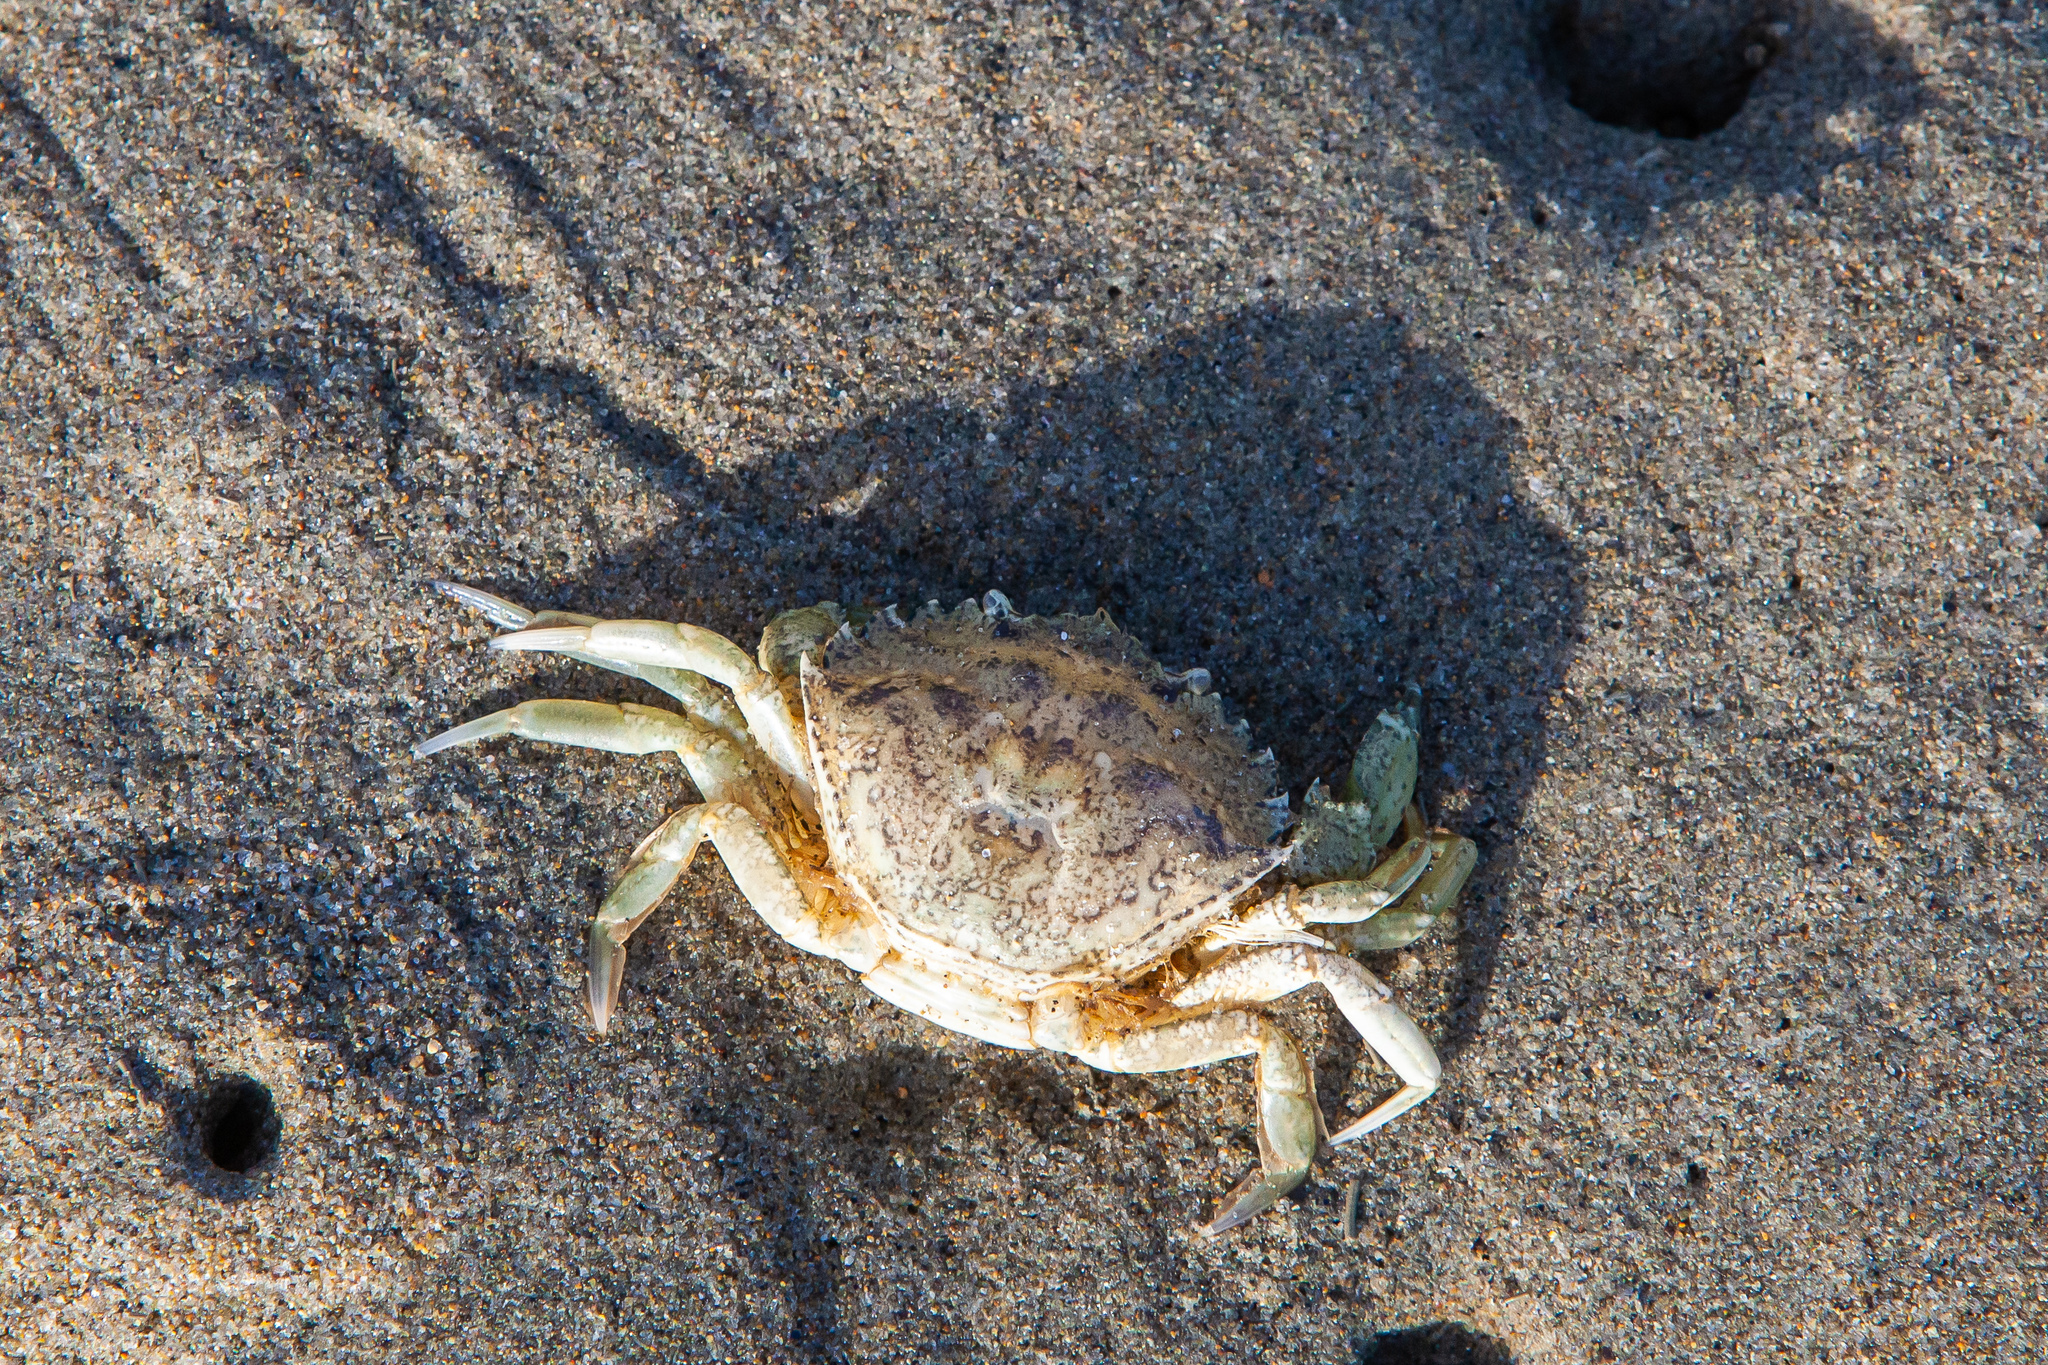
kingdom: Animalia
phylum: Arthropoda
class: Malacostraca
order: Decapoda
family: Carcinidae
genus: Carcinus
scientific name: Carcinus maenas
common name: European green crab
